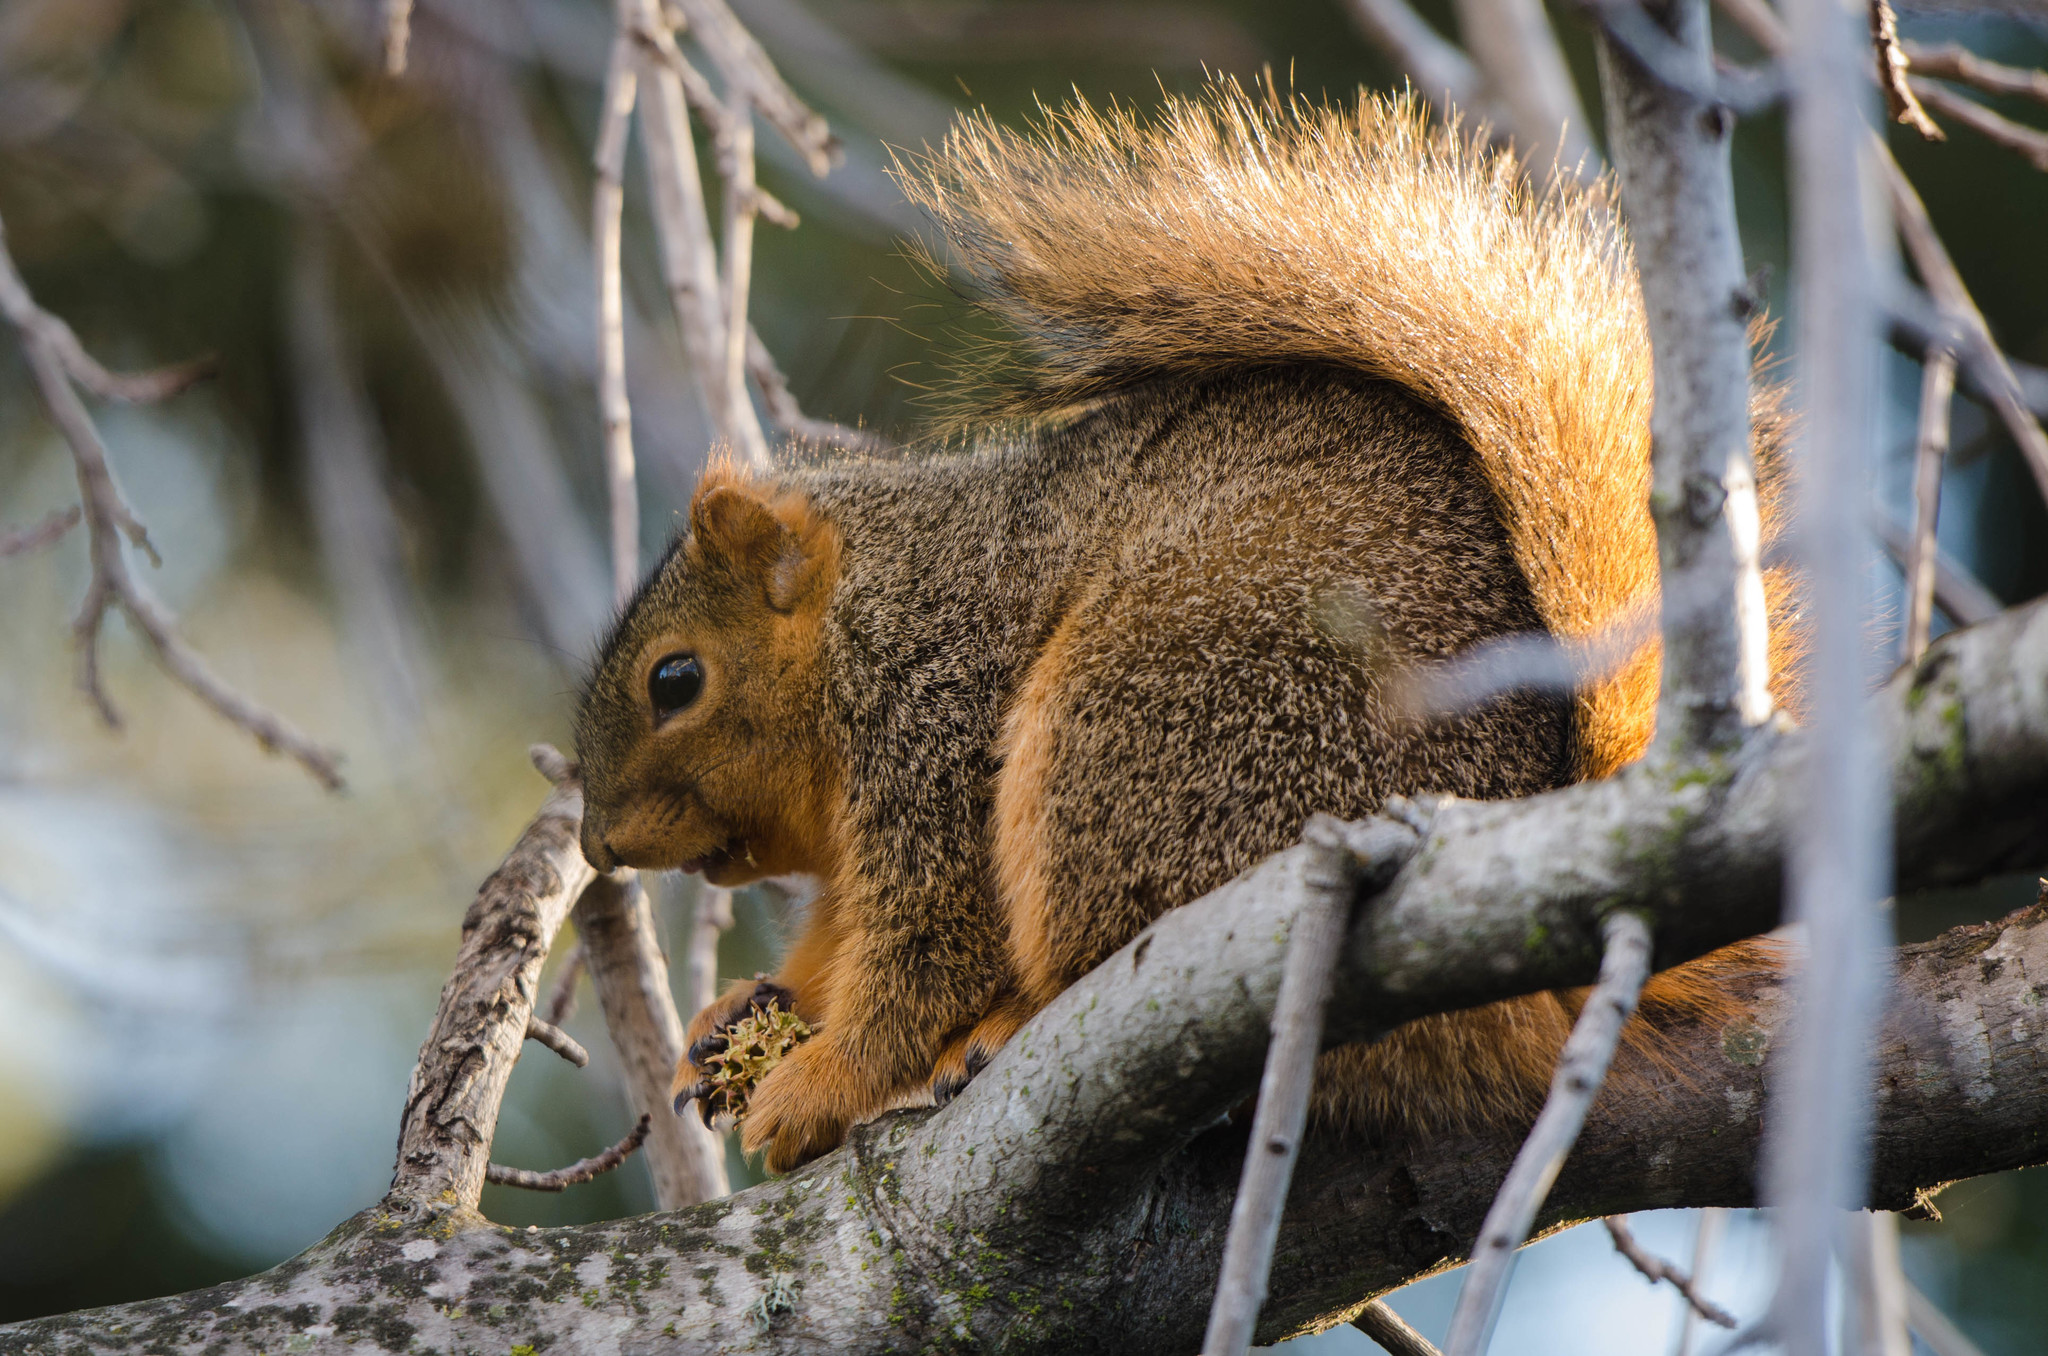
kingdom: Animalia
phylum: Chordata
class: Mammalia
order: Rodentia
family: Sciuridae
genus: Sciurus
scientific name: Sciurus niger
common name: Fox squirrel
